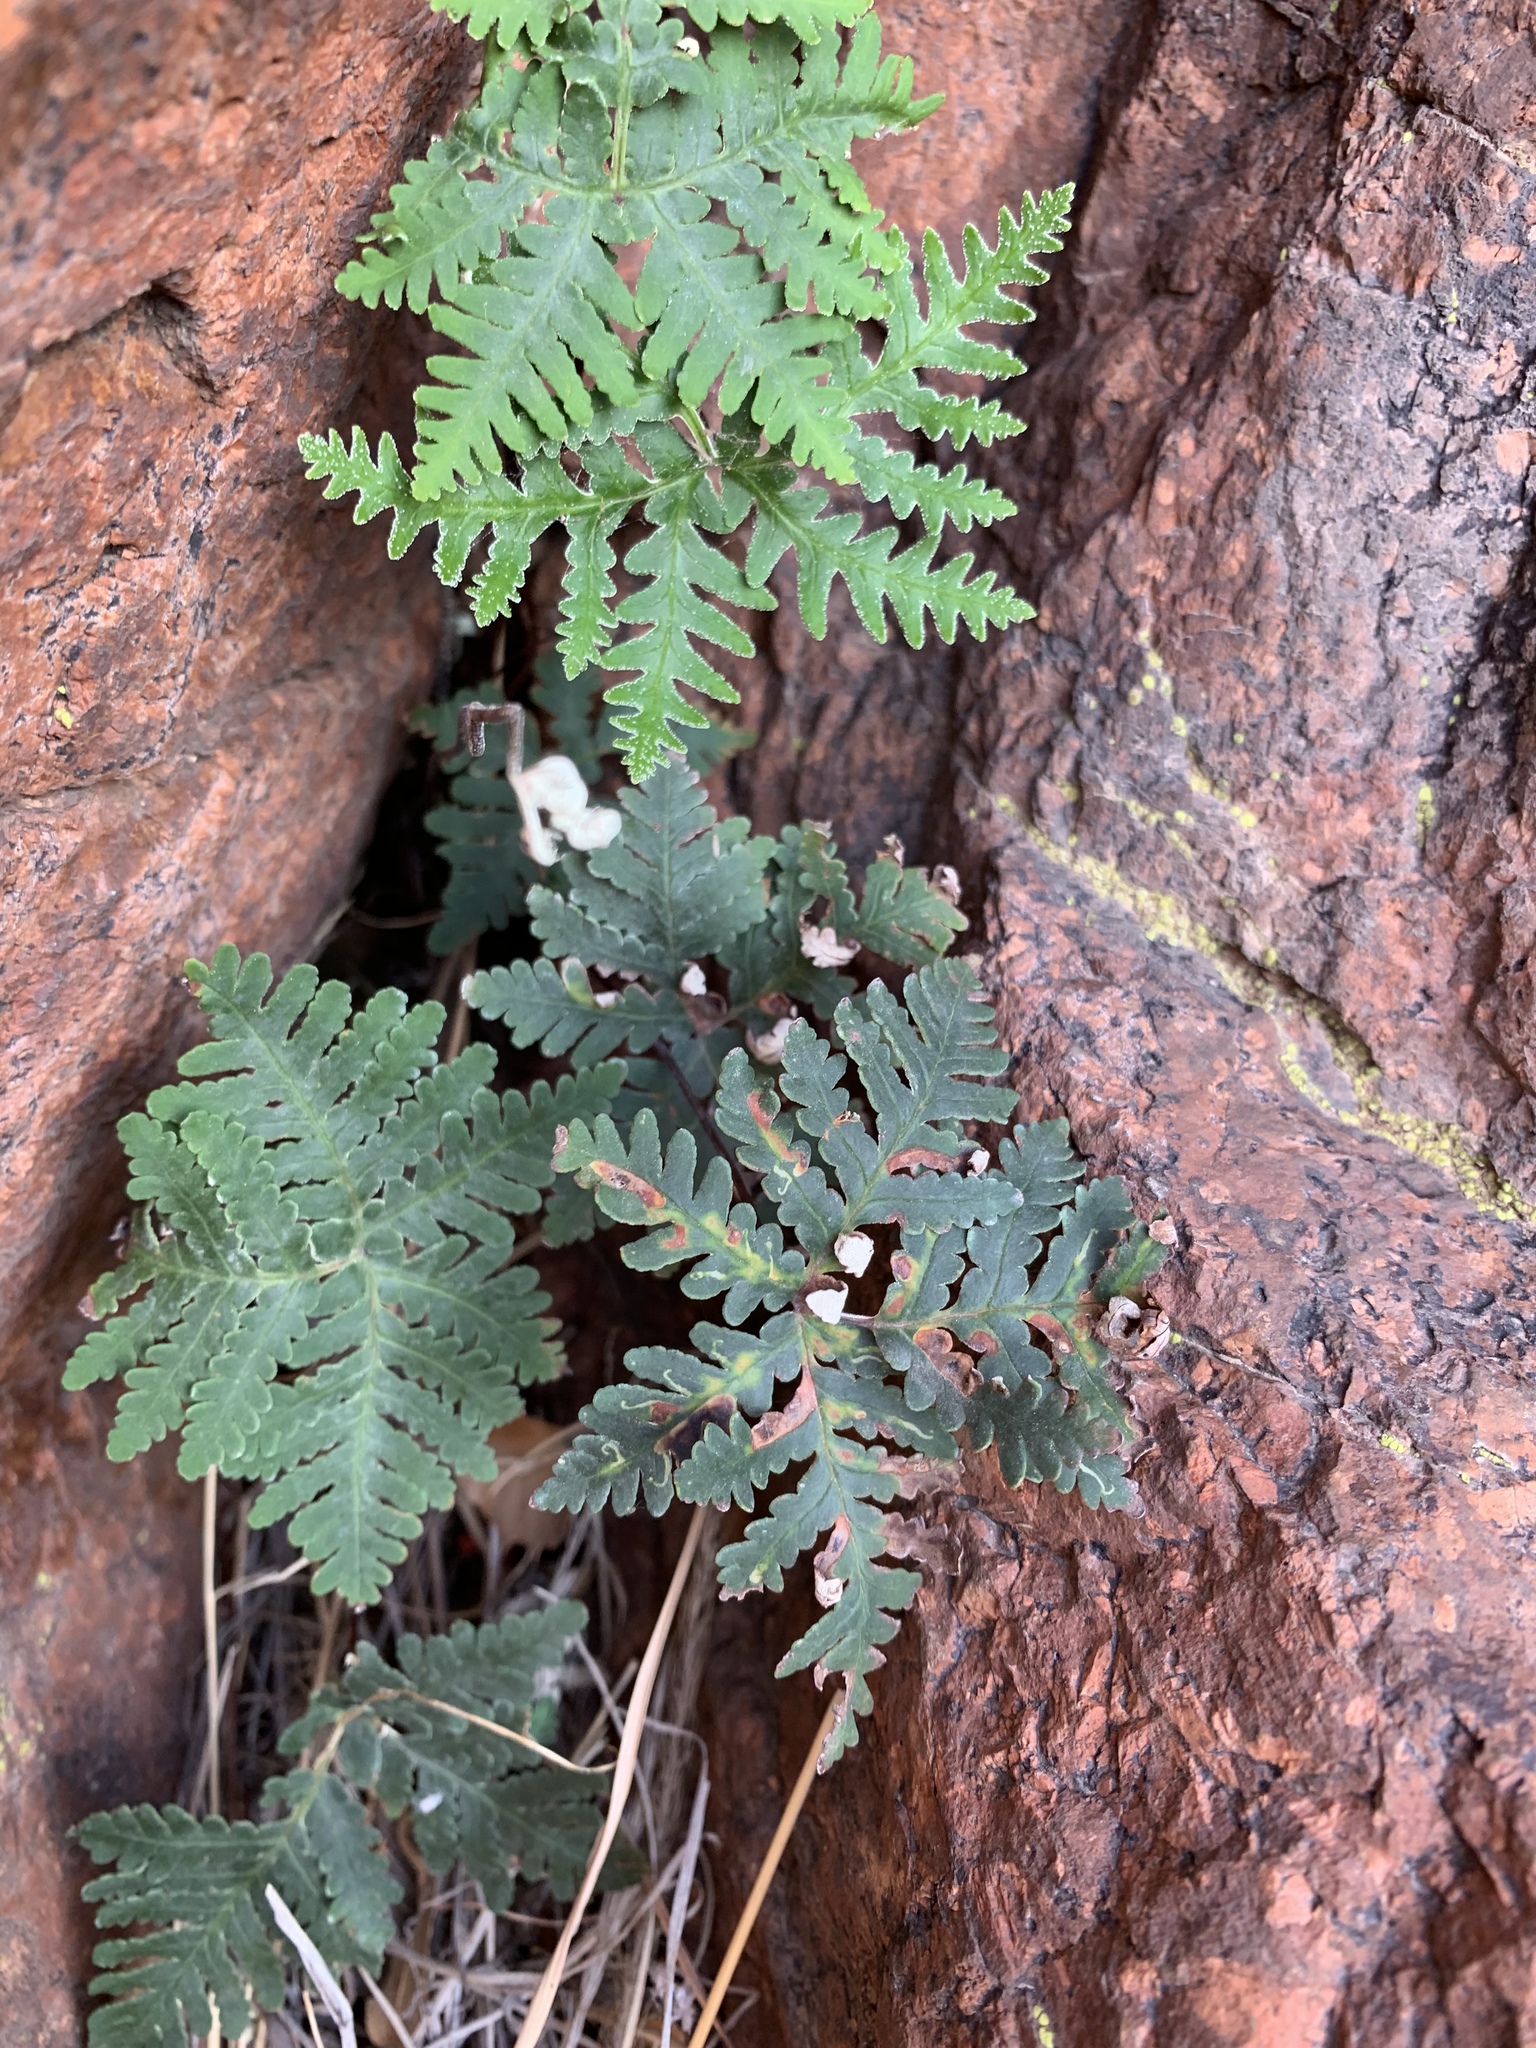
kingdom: Plantae
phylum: Tracheophyta
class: Polypodiopsida
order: Polypodiales
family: Pteridaceae
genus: Notholaena
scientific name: Notholaena standleyi
